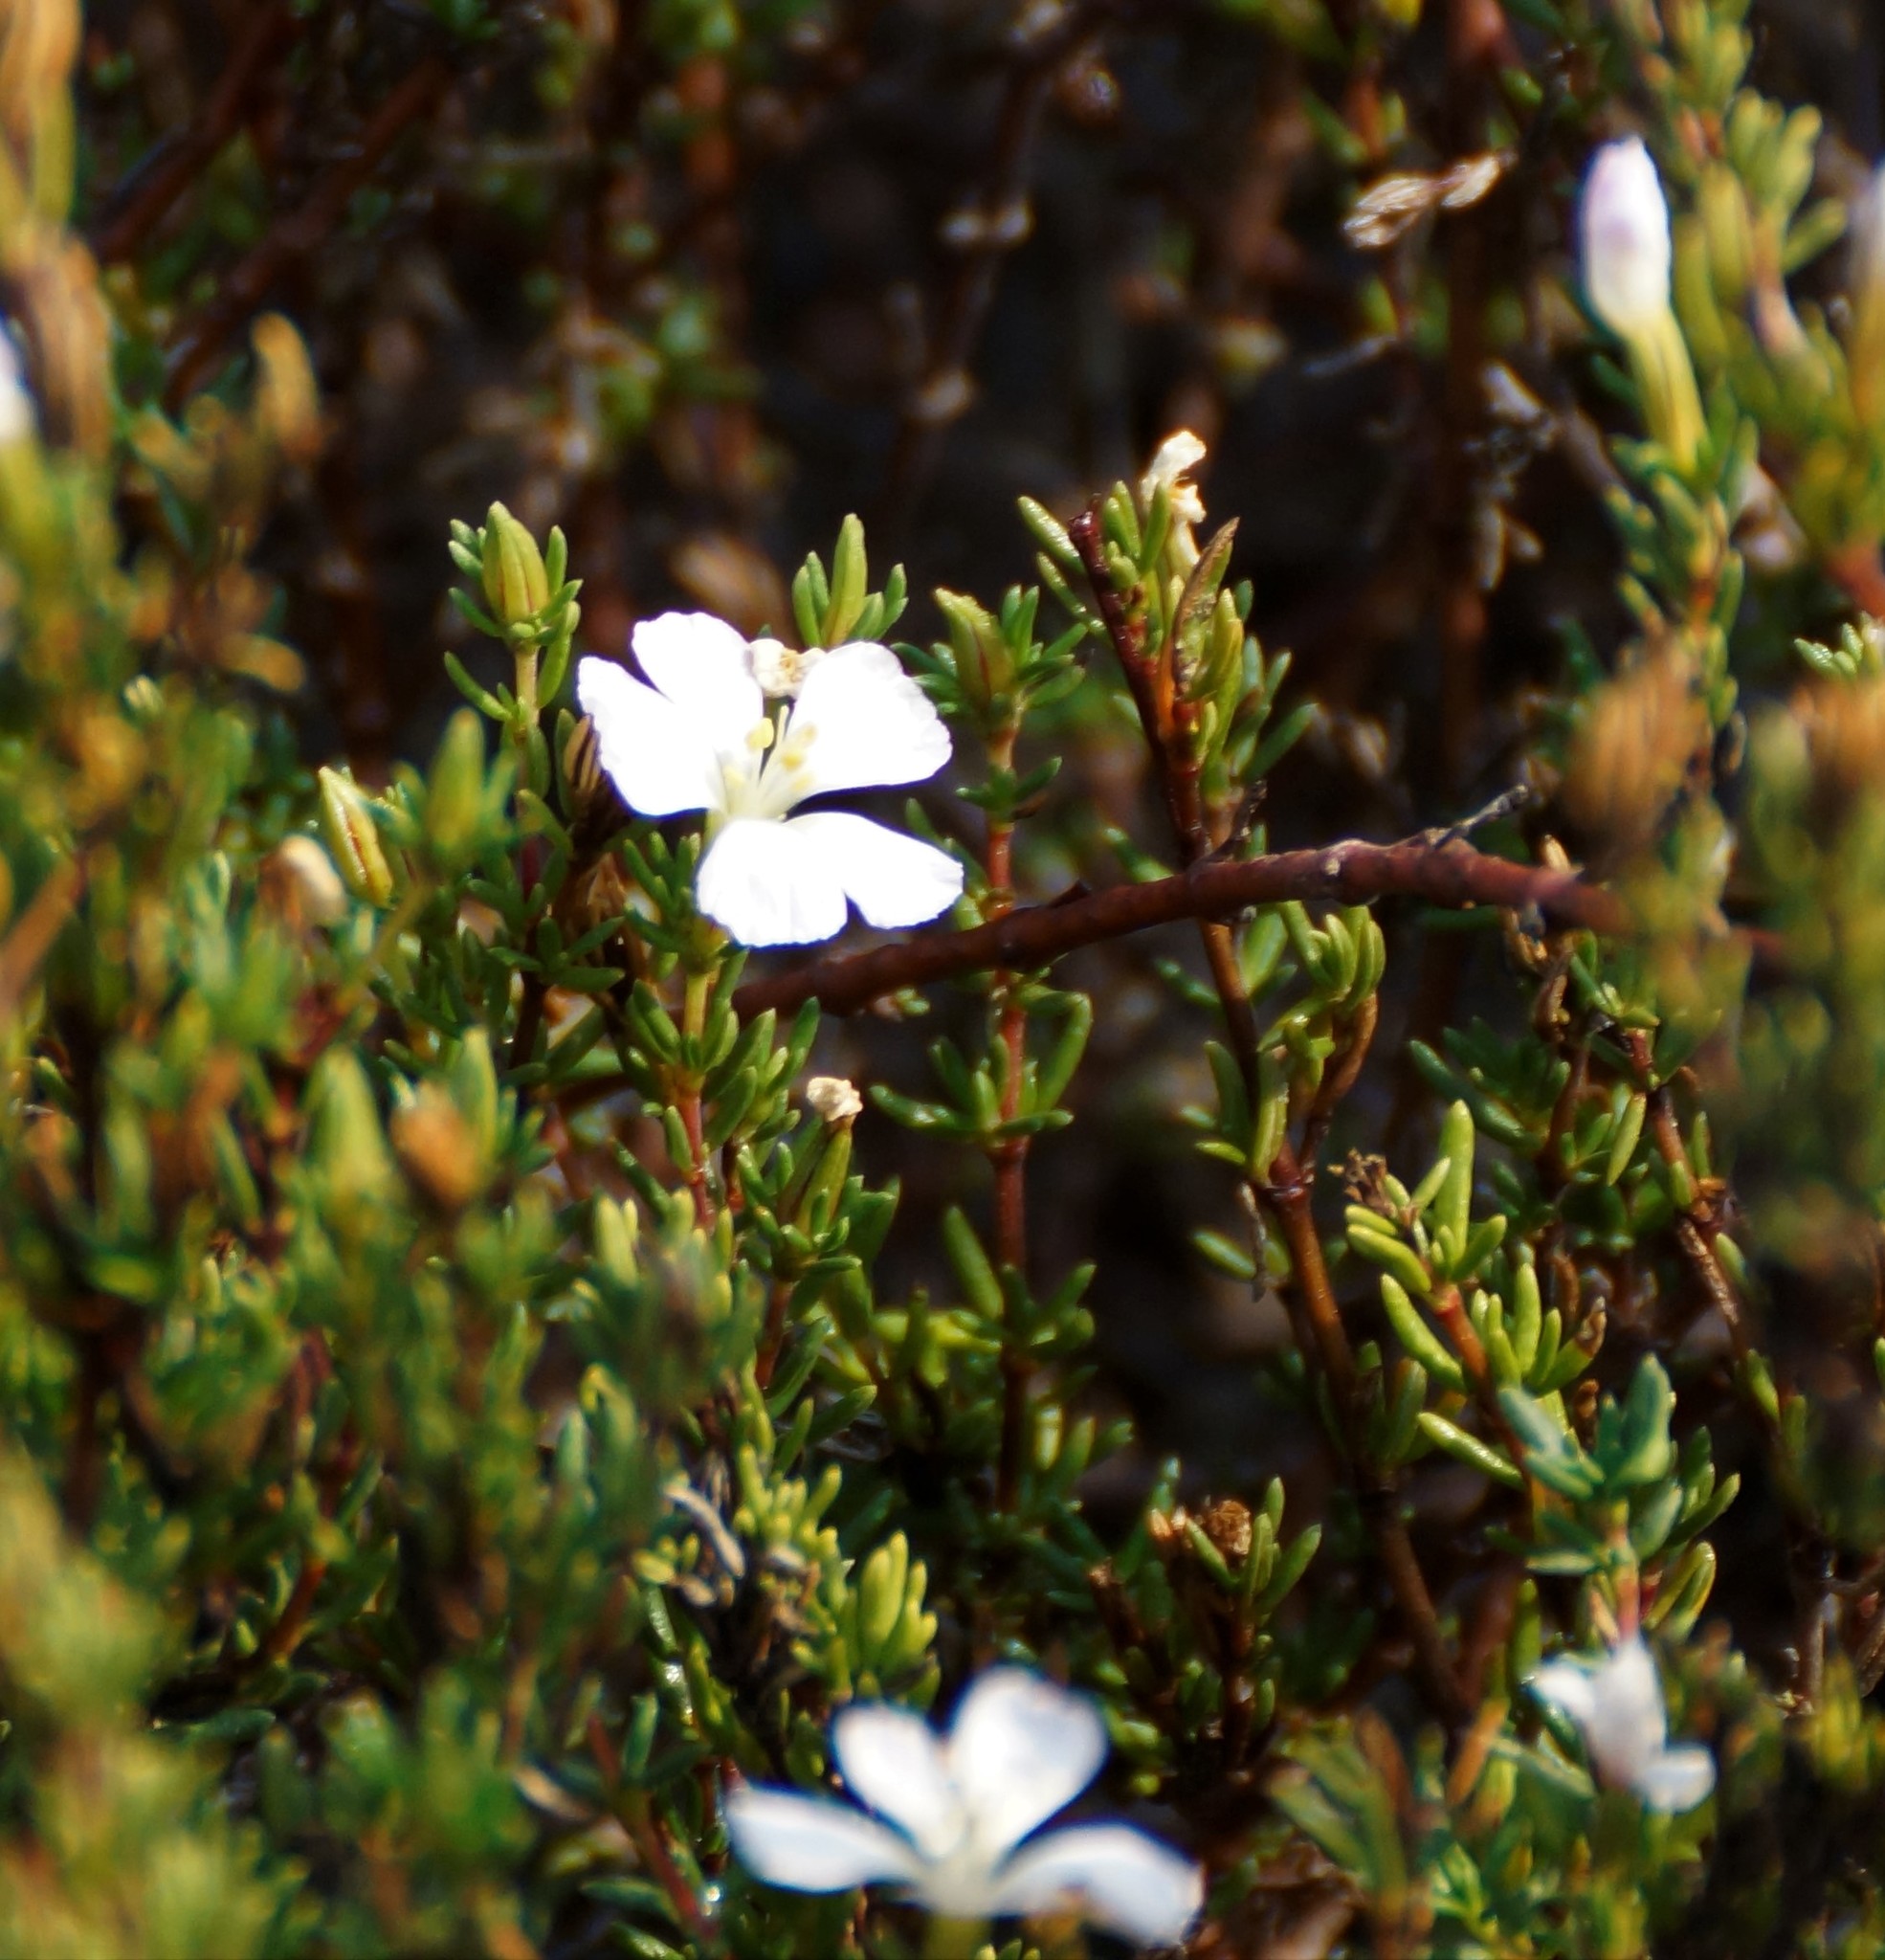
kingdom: Plantae
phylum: Tracheophyta
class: Magnoliopsida
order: Caryophyllales
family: Frankeniaceae
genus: Frankenia
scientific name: Frankenia pauciflora
